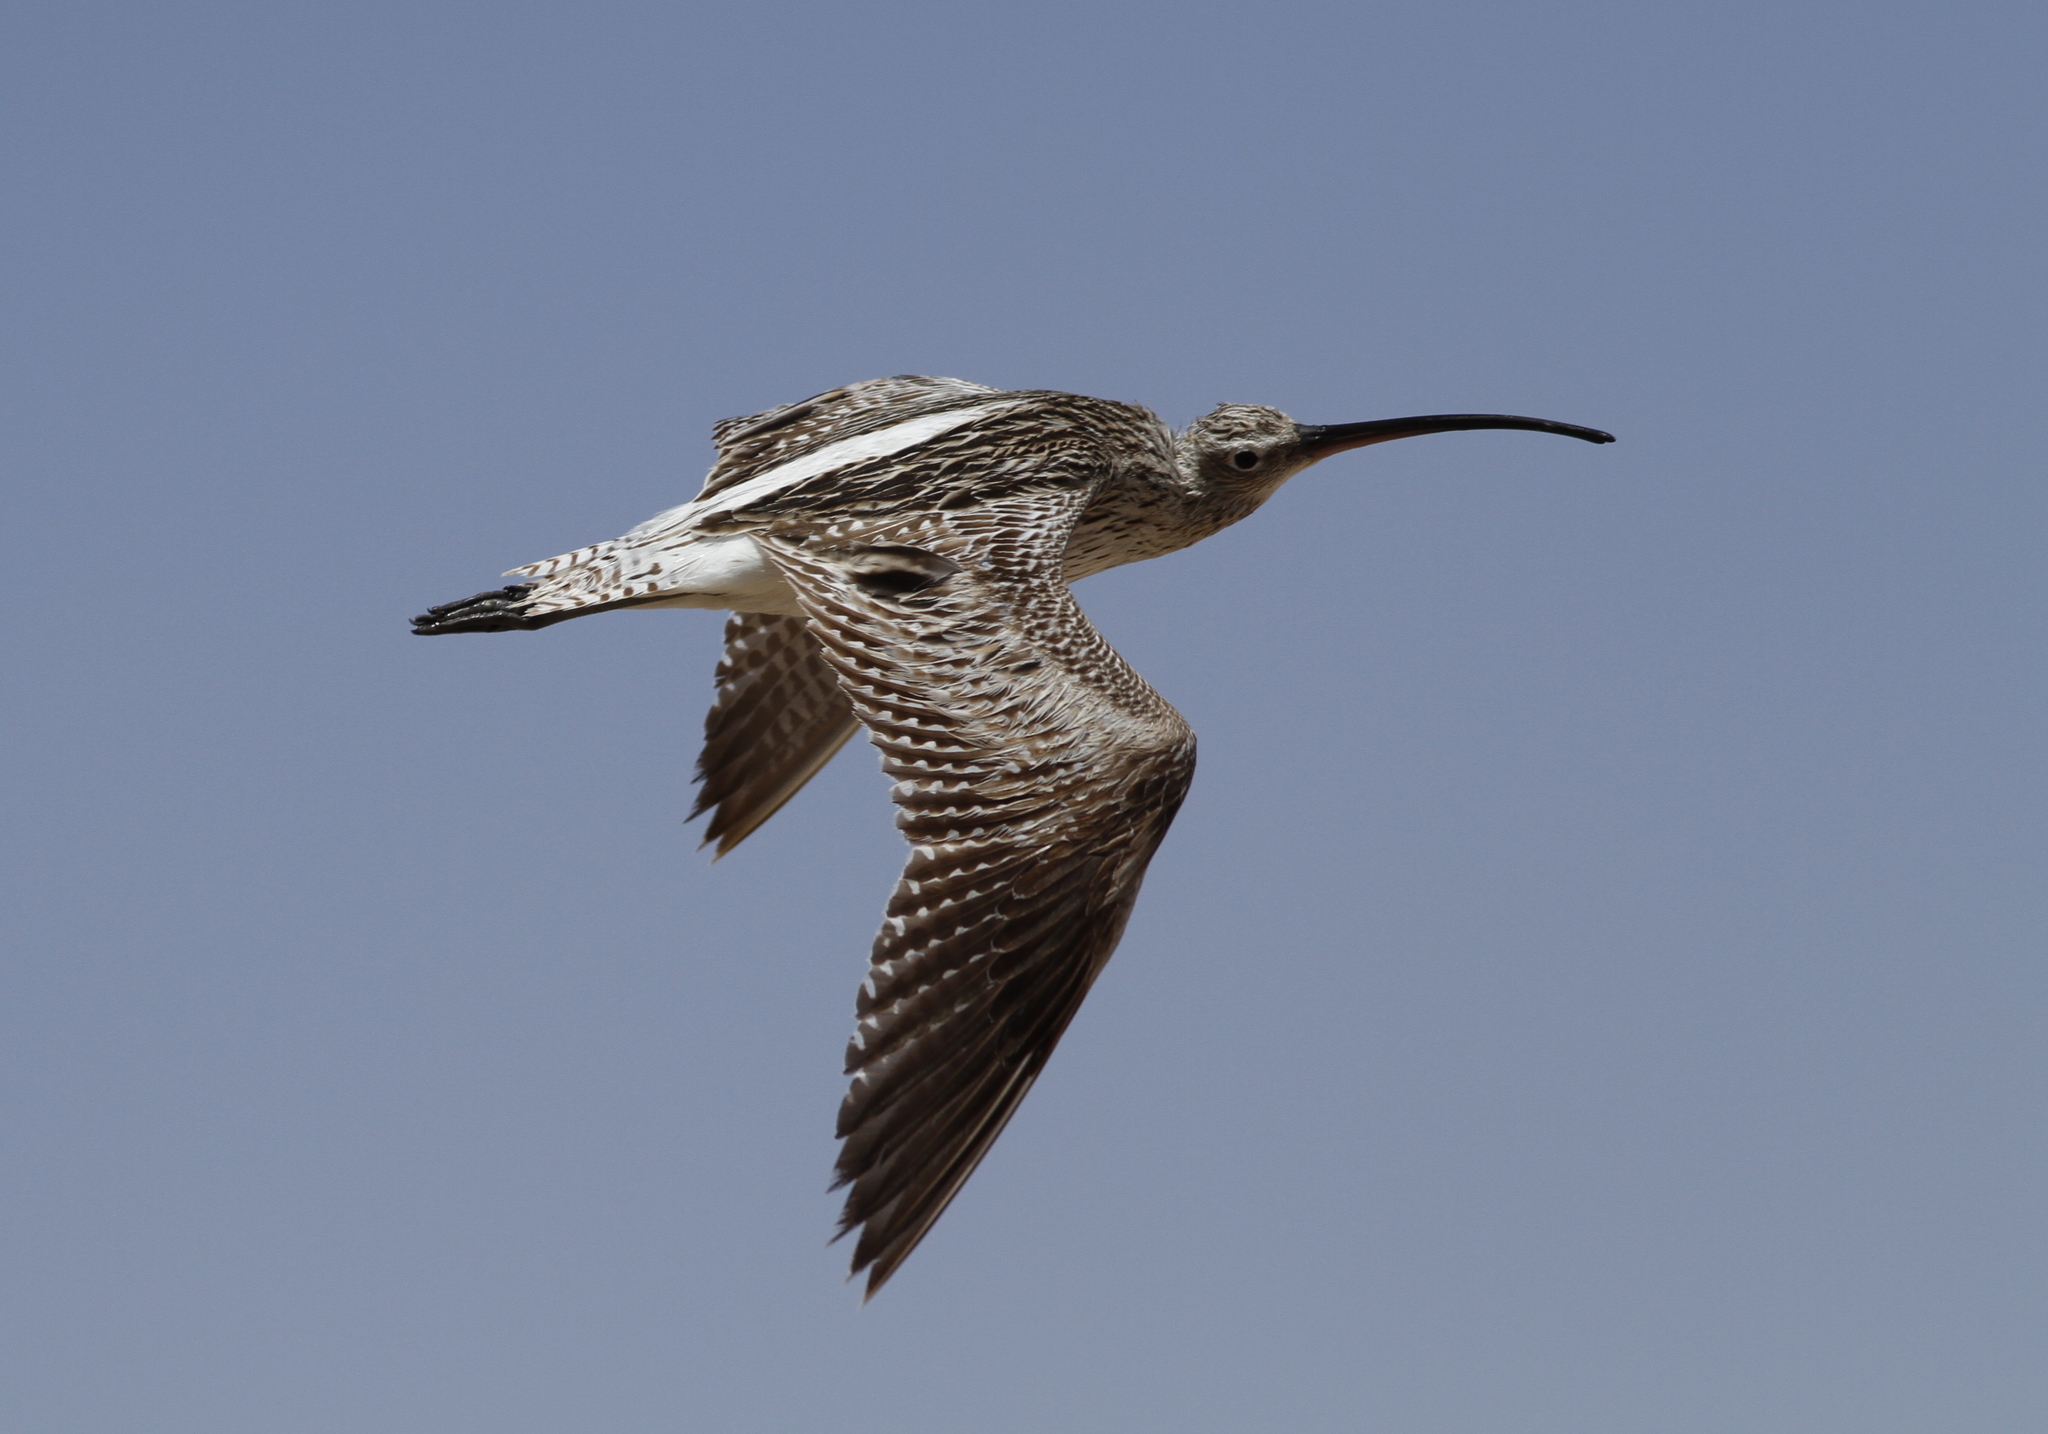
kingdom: Animalia
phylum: Chordata
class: Aves
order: Charadriiformes
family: Scolopacidae
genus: Numenius
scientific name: Numenius arquata
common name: Eurasian curlew
